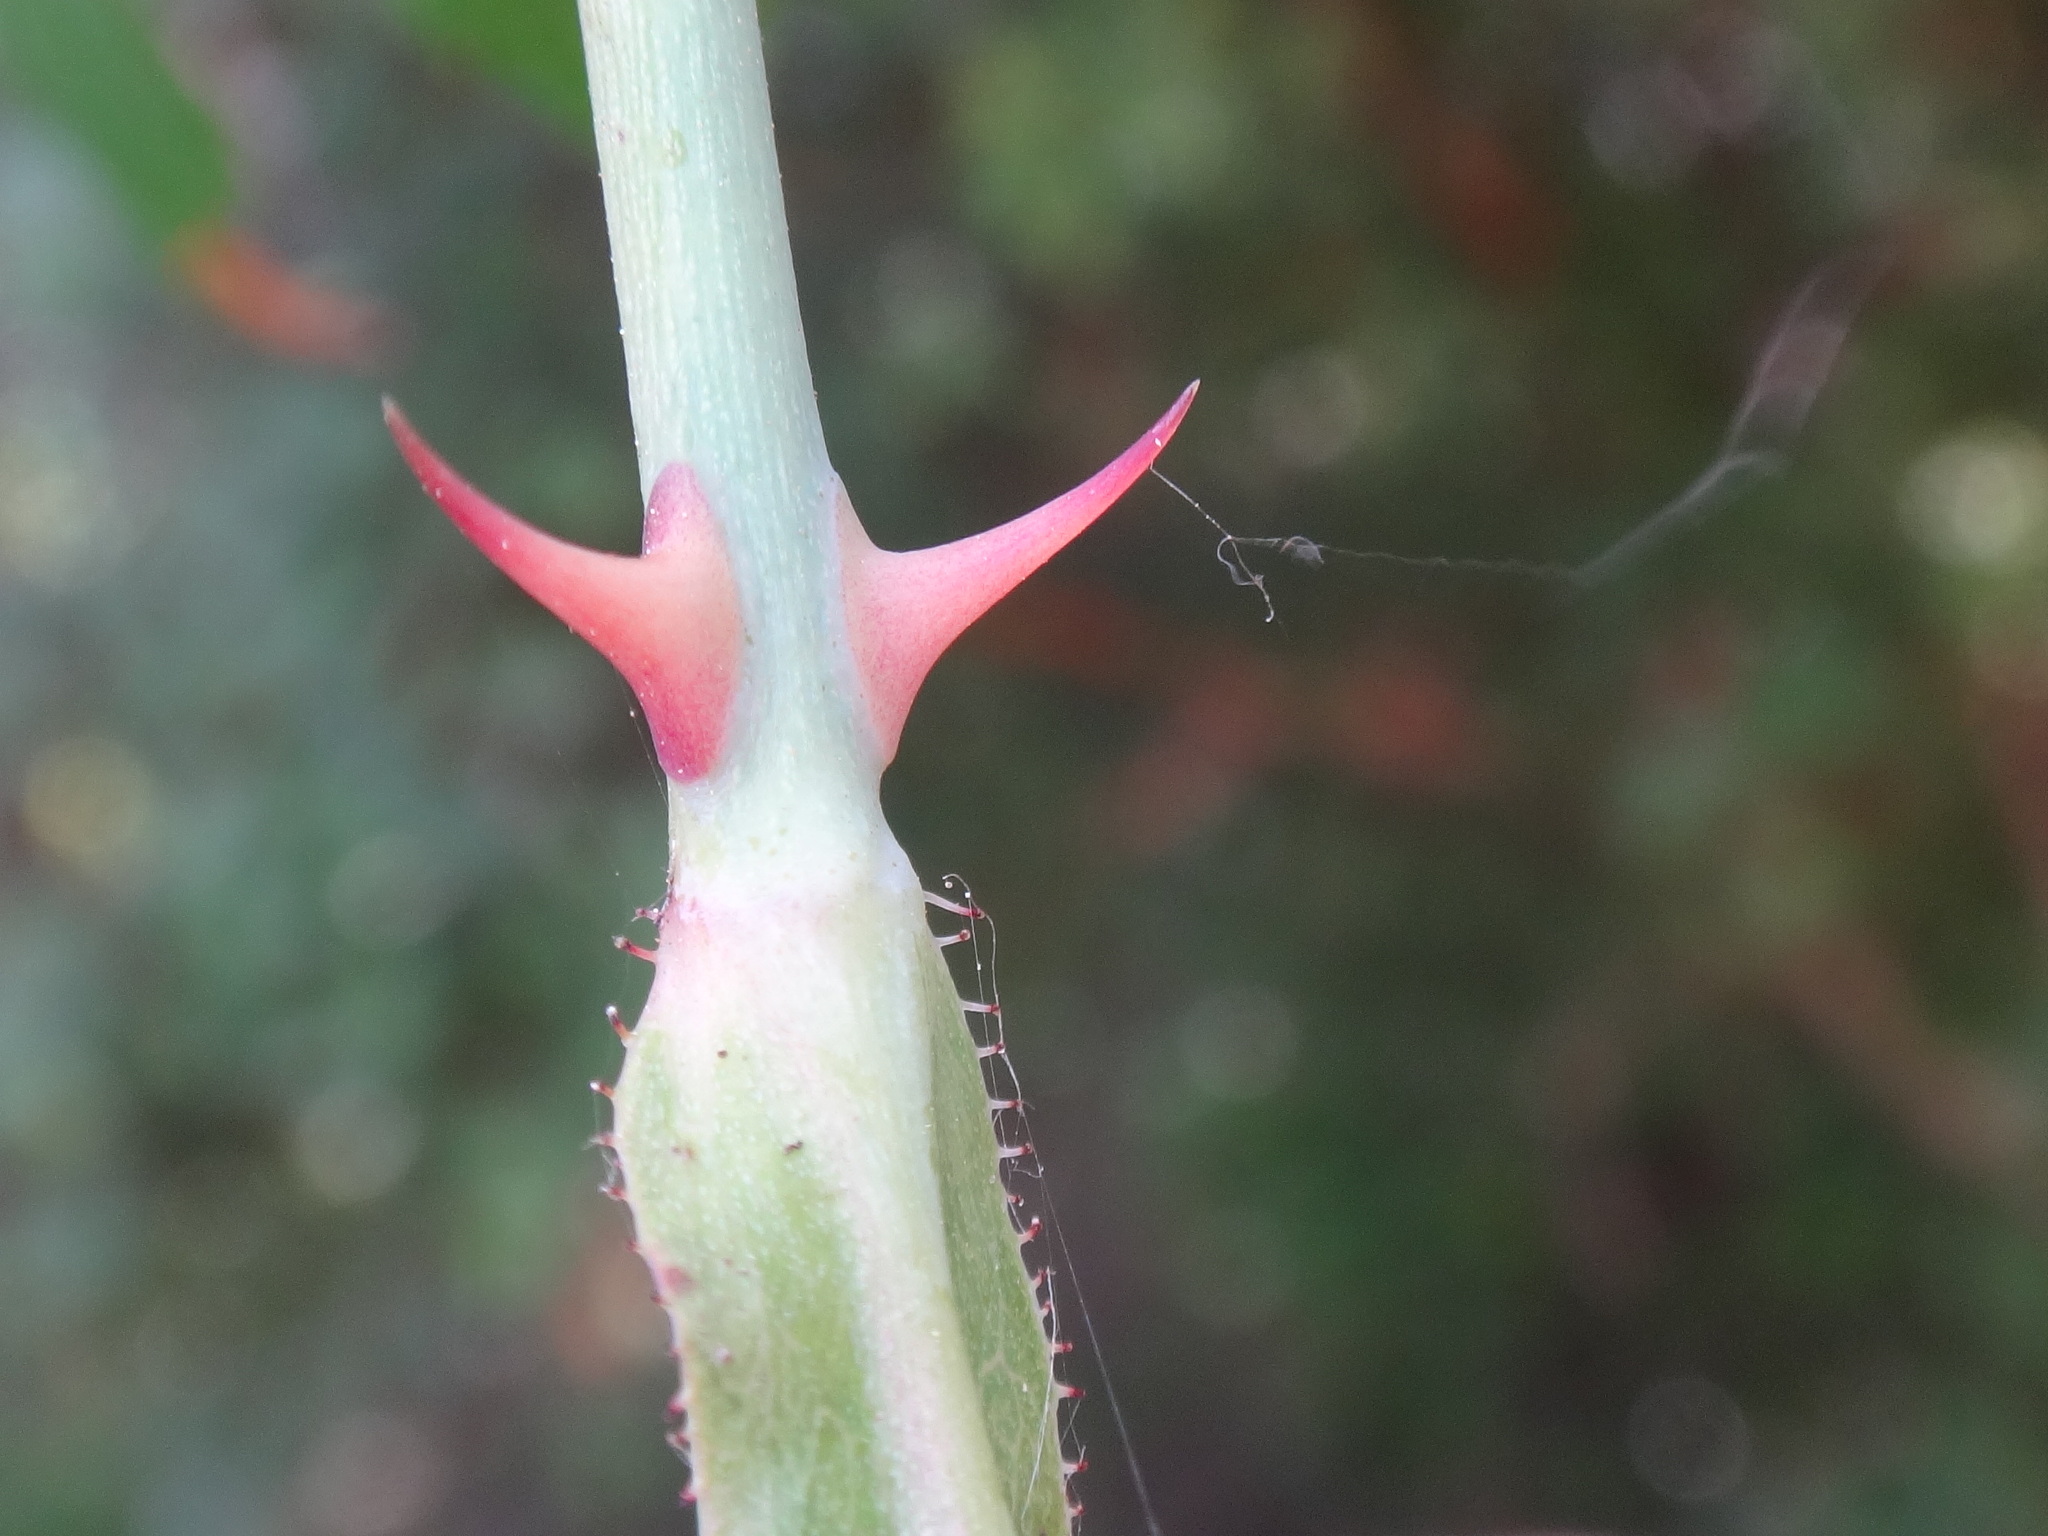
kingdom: Plantae
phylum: Tracheophyta
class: Magnoliopsida
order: Rosales
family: Rosaceae
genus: Rosa
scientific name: Rosa sempervirens
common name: Evergreen rose
